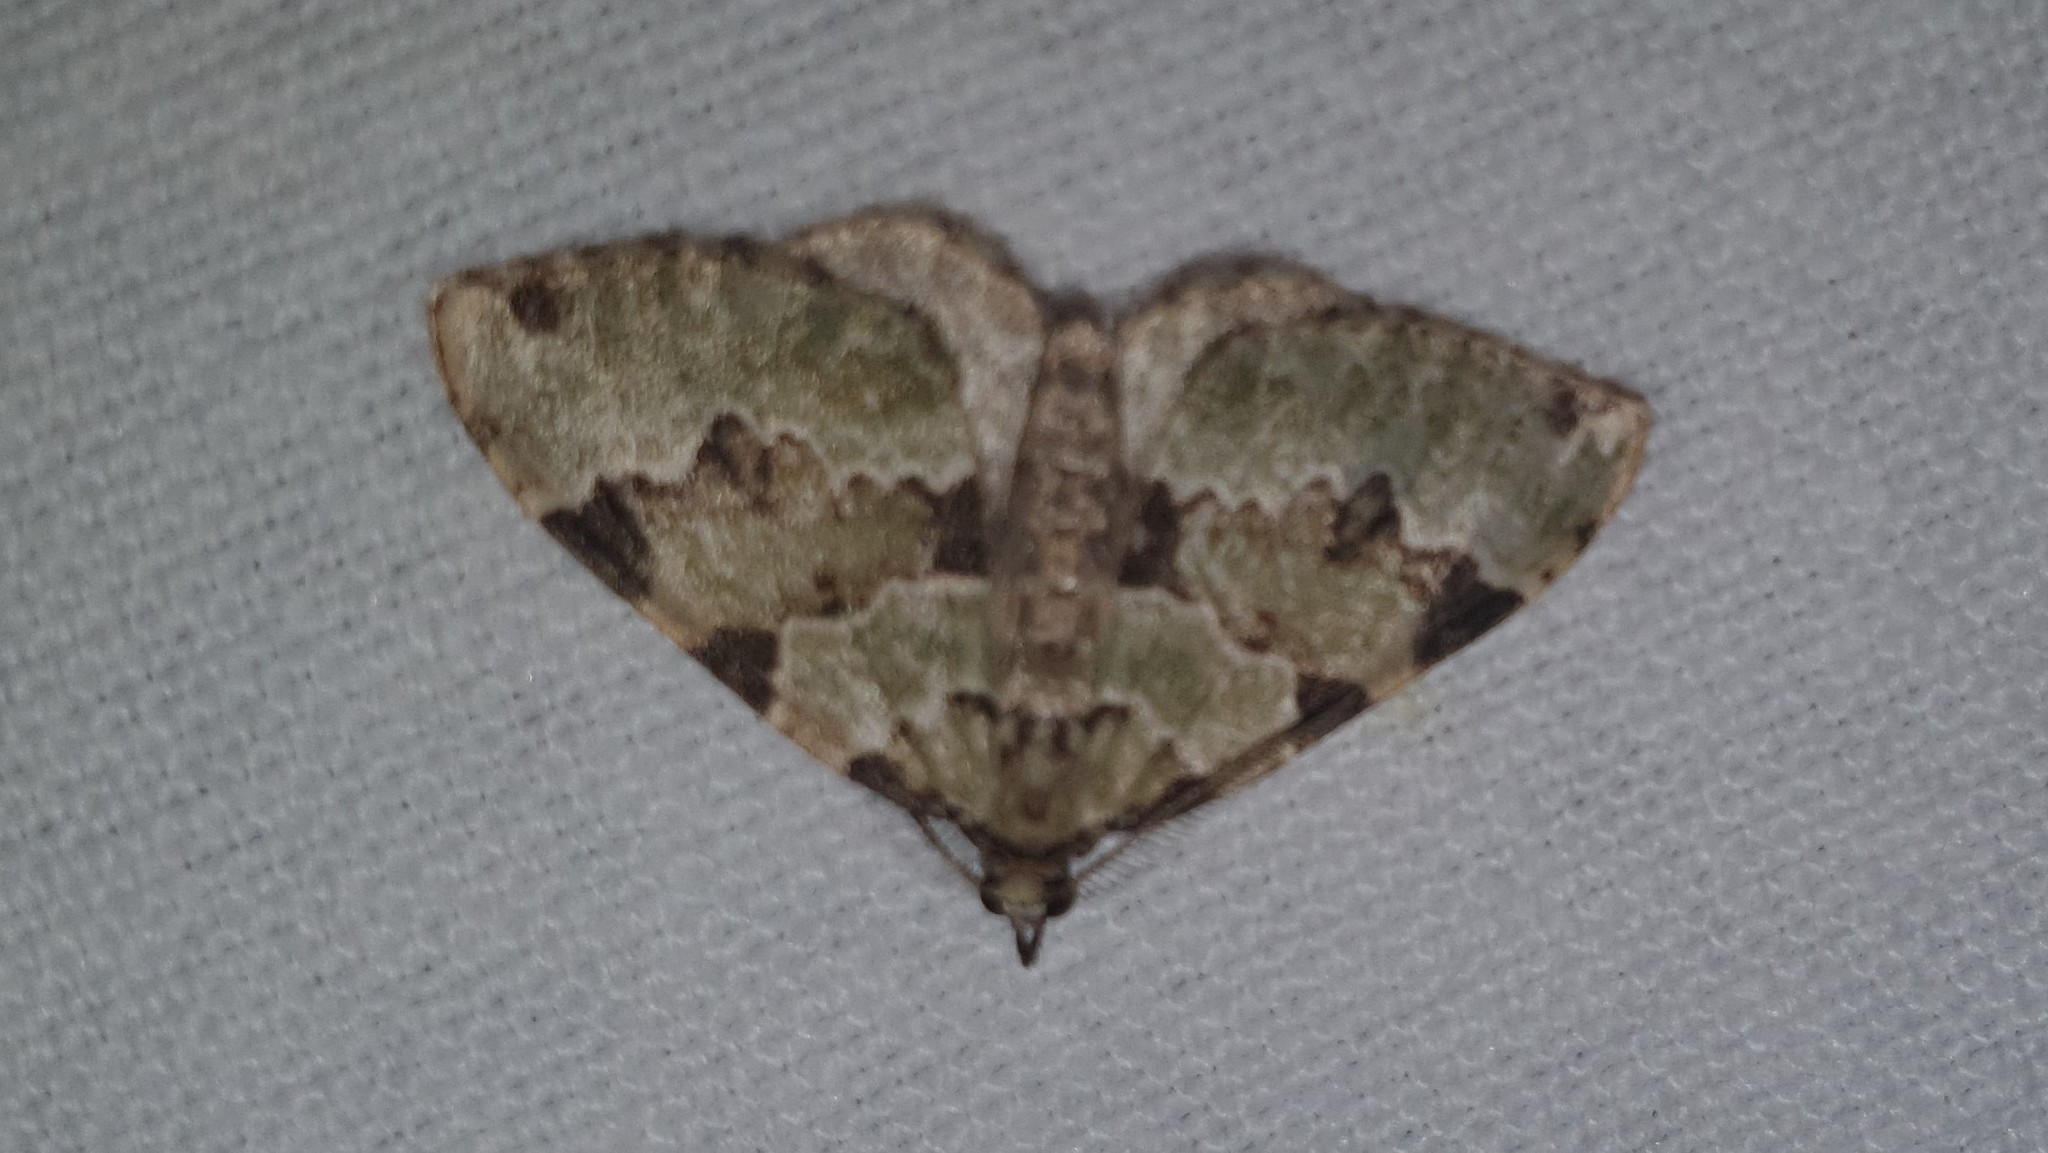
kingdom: Animalia
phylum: Arthropoda
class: Insecta
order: Lepidoptera
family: Geometridae
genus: Colostygia
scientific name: Colostygia pectinataria
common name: Green carpet
